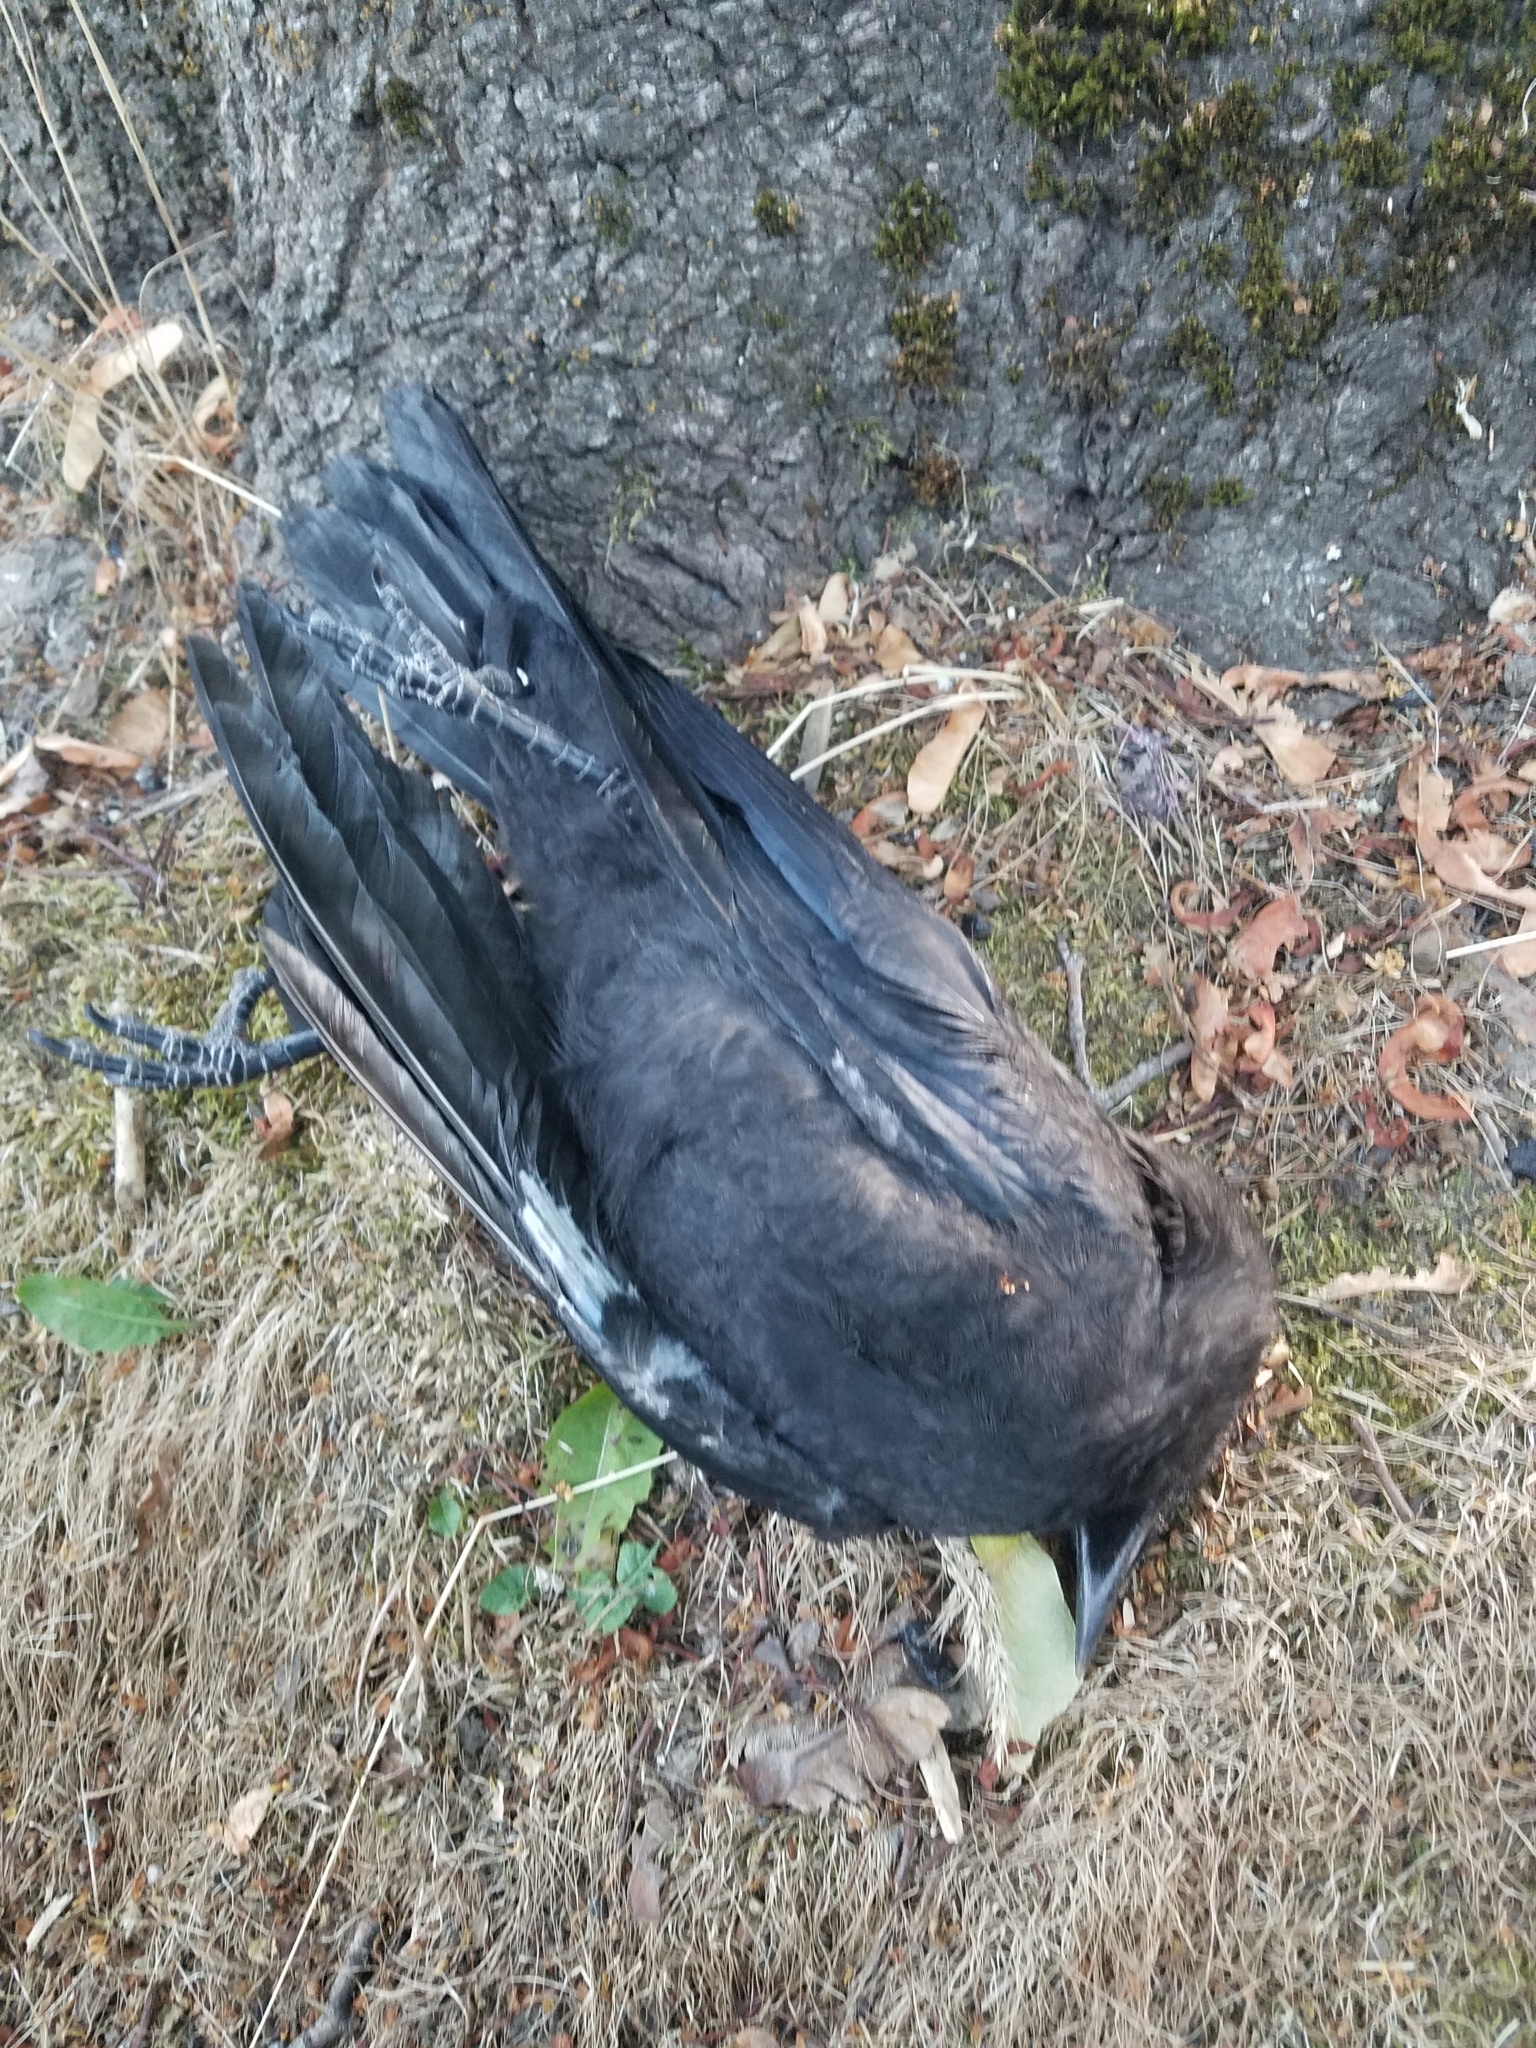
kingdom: Animalia
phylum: Chordata
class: Aves
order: Passeriformes
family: Corvidae
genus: Corvus
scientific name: Corvus brachyrhynchos
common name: American crow
